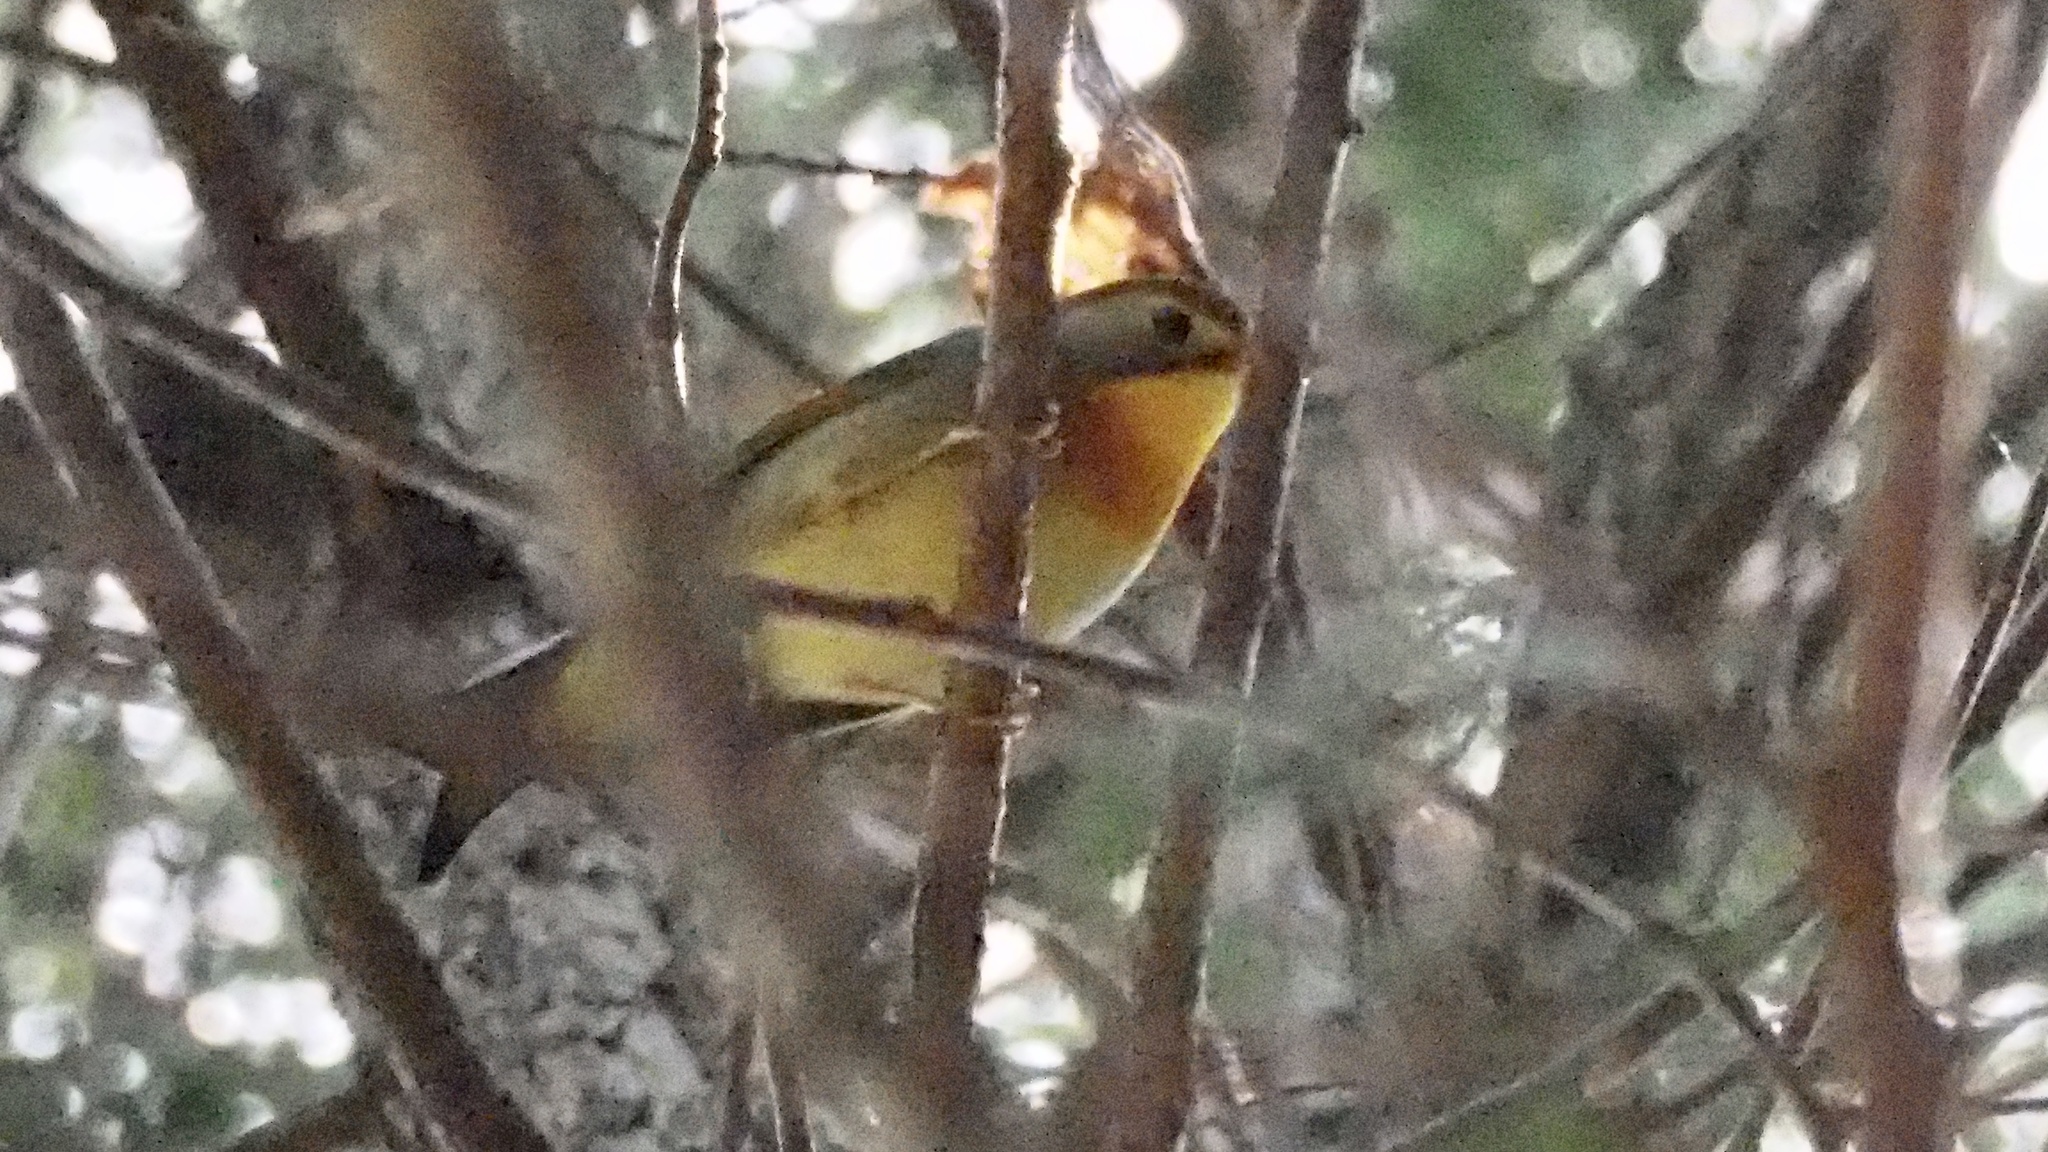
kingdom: Animalia
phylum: Chordata
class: Aves
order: Passeriformes
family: Leiothrichidae
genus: Leiothrix
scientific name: Leiothrix lutea
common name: Red-billed leiothrix
